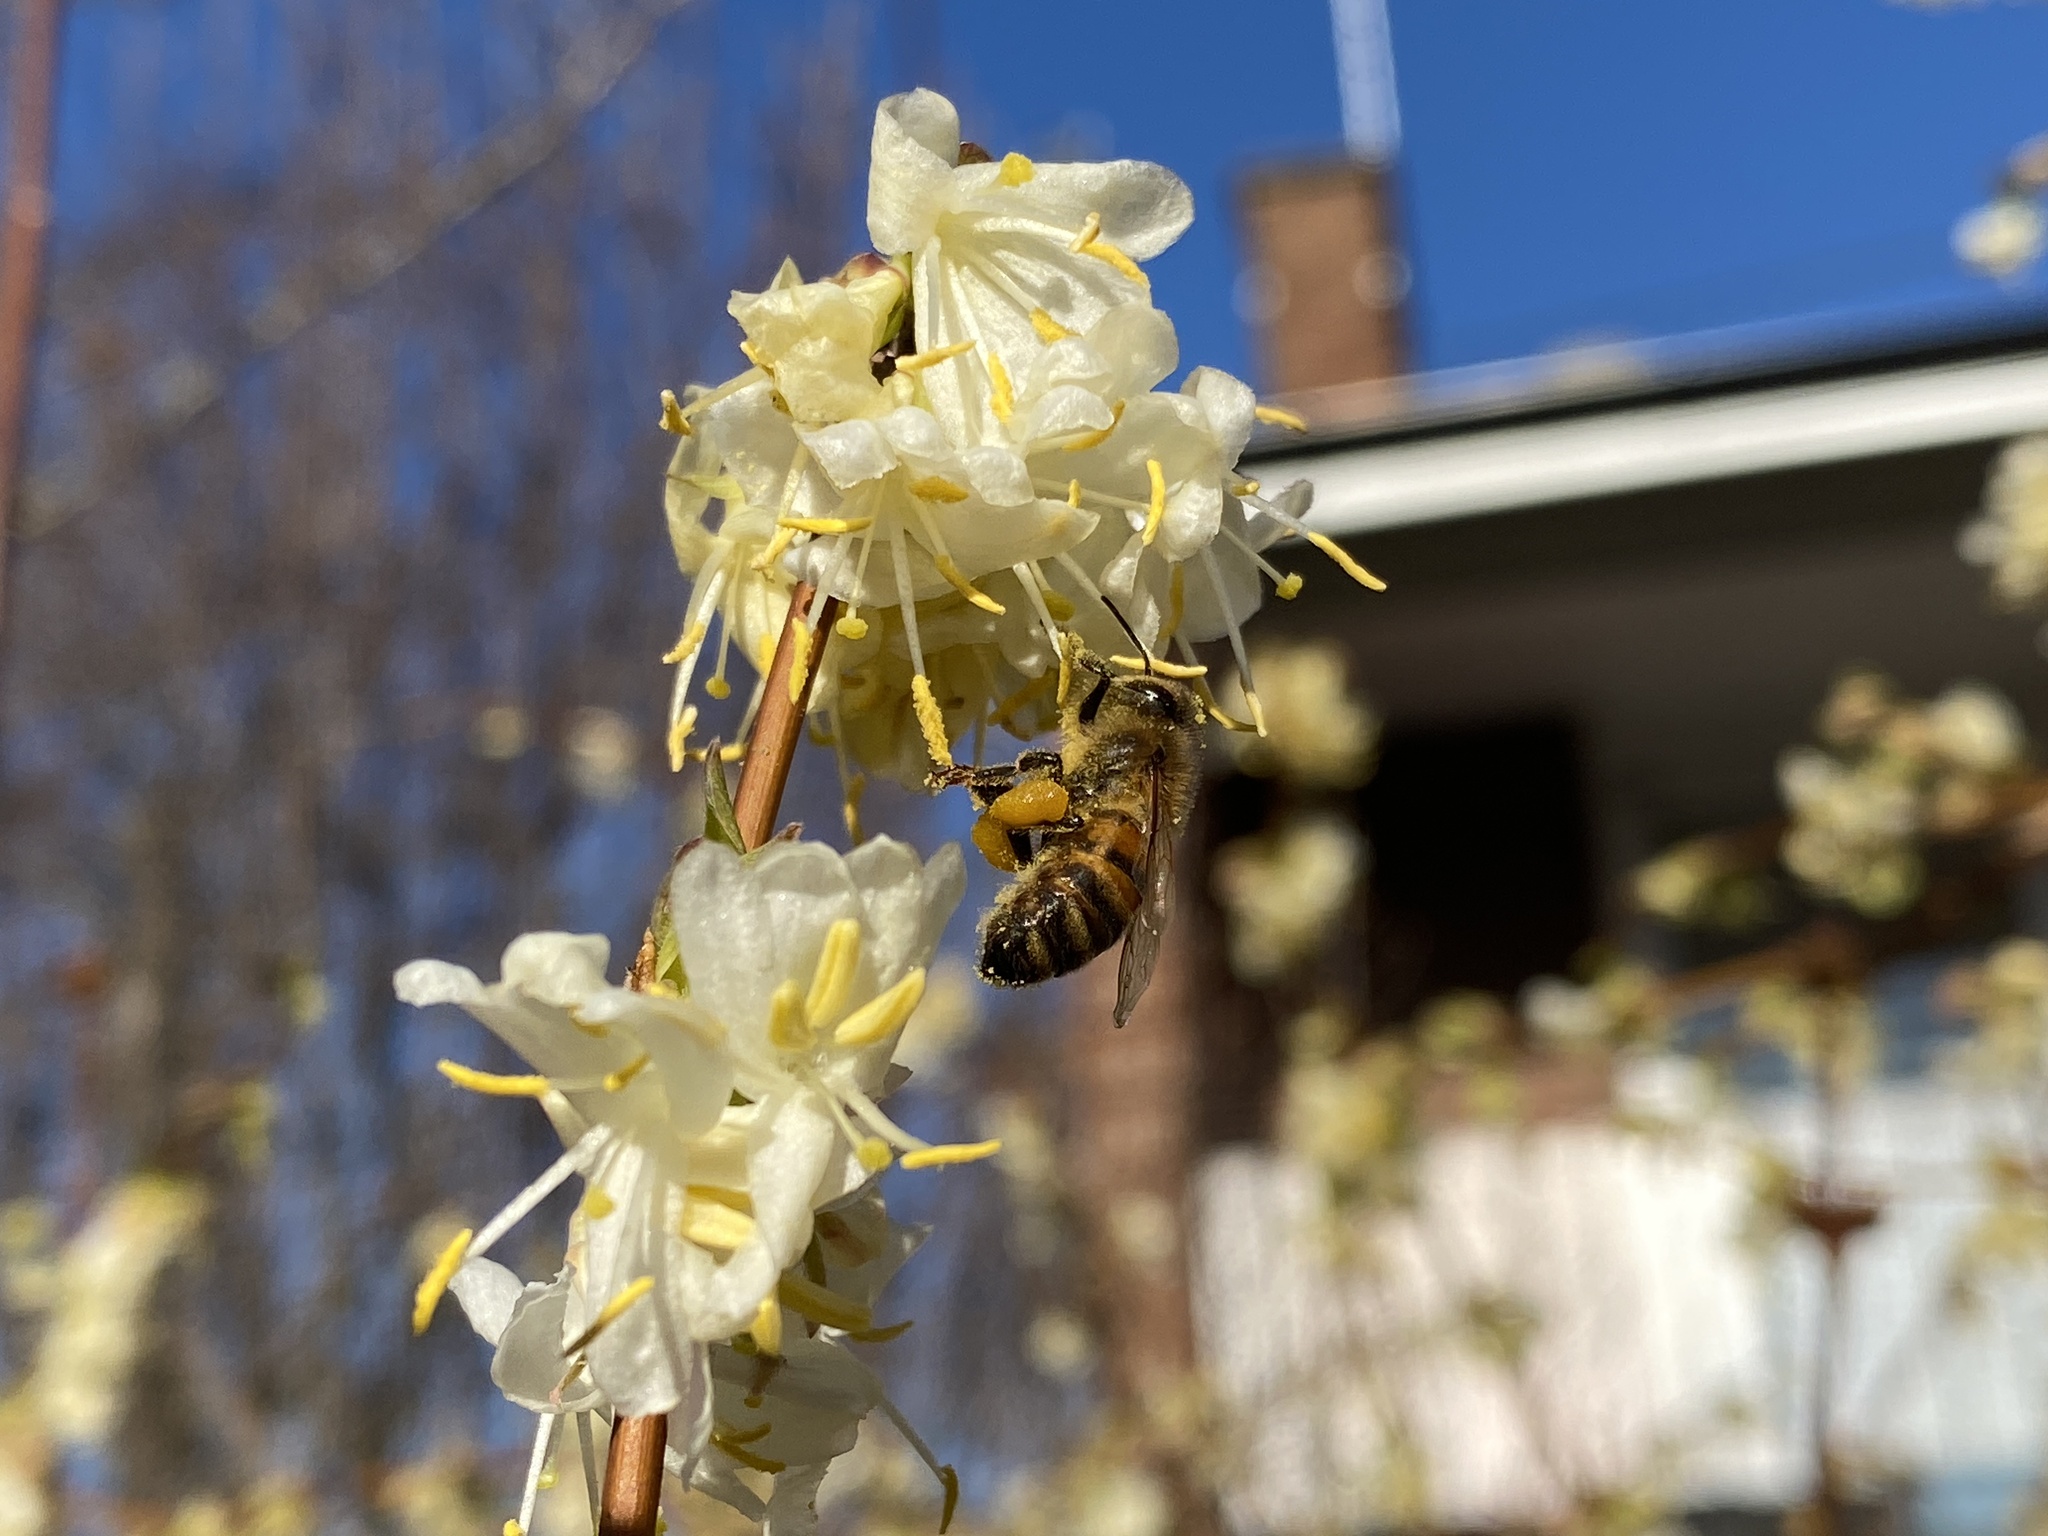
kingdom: Animalia
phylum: Arthropoda
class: Insecta
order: Hymenoptera
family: Apidae
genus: Apis
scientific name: Apis mellifera
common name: Honey bee
